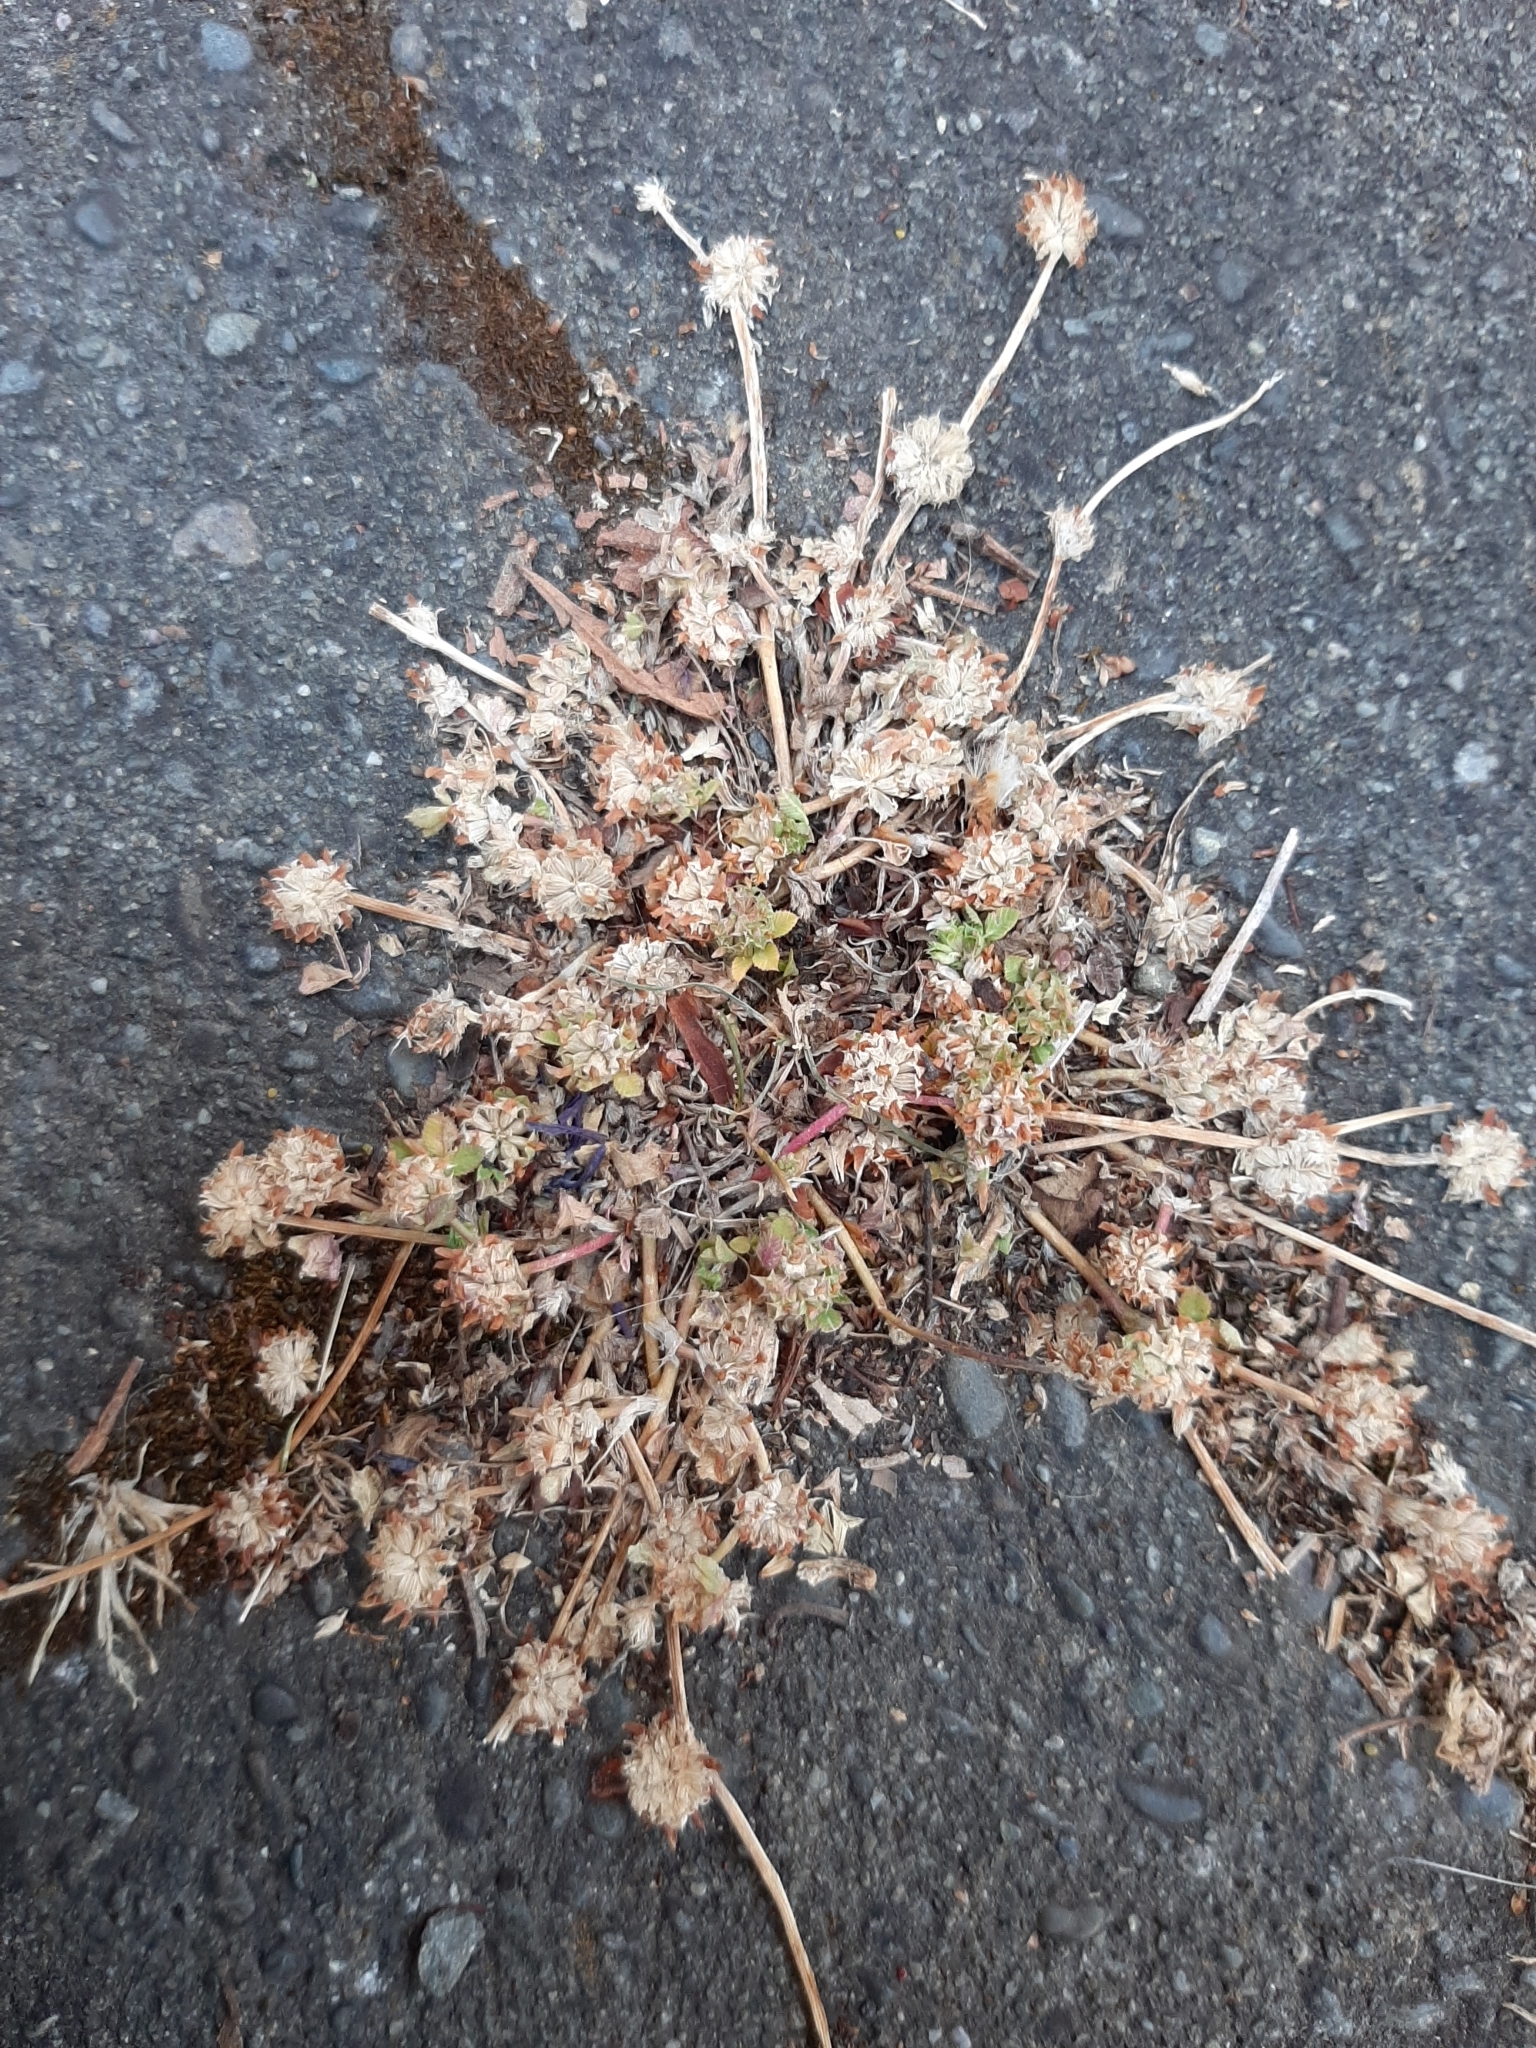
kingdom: Plantae
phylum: Tracheophyta
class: Magnoliopsida
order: Fabales
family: Fabaceae
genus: Trifolium
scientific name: Trifolium glomeratum
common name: Clustered clover
